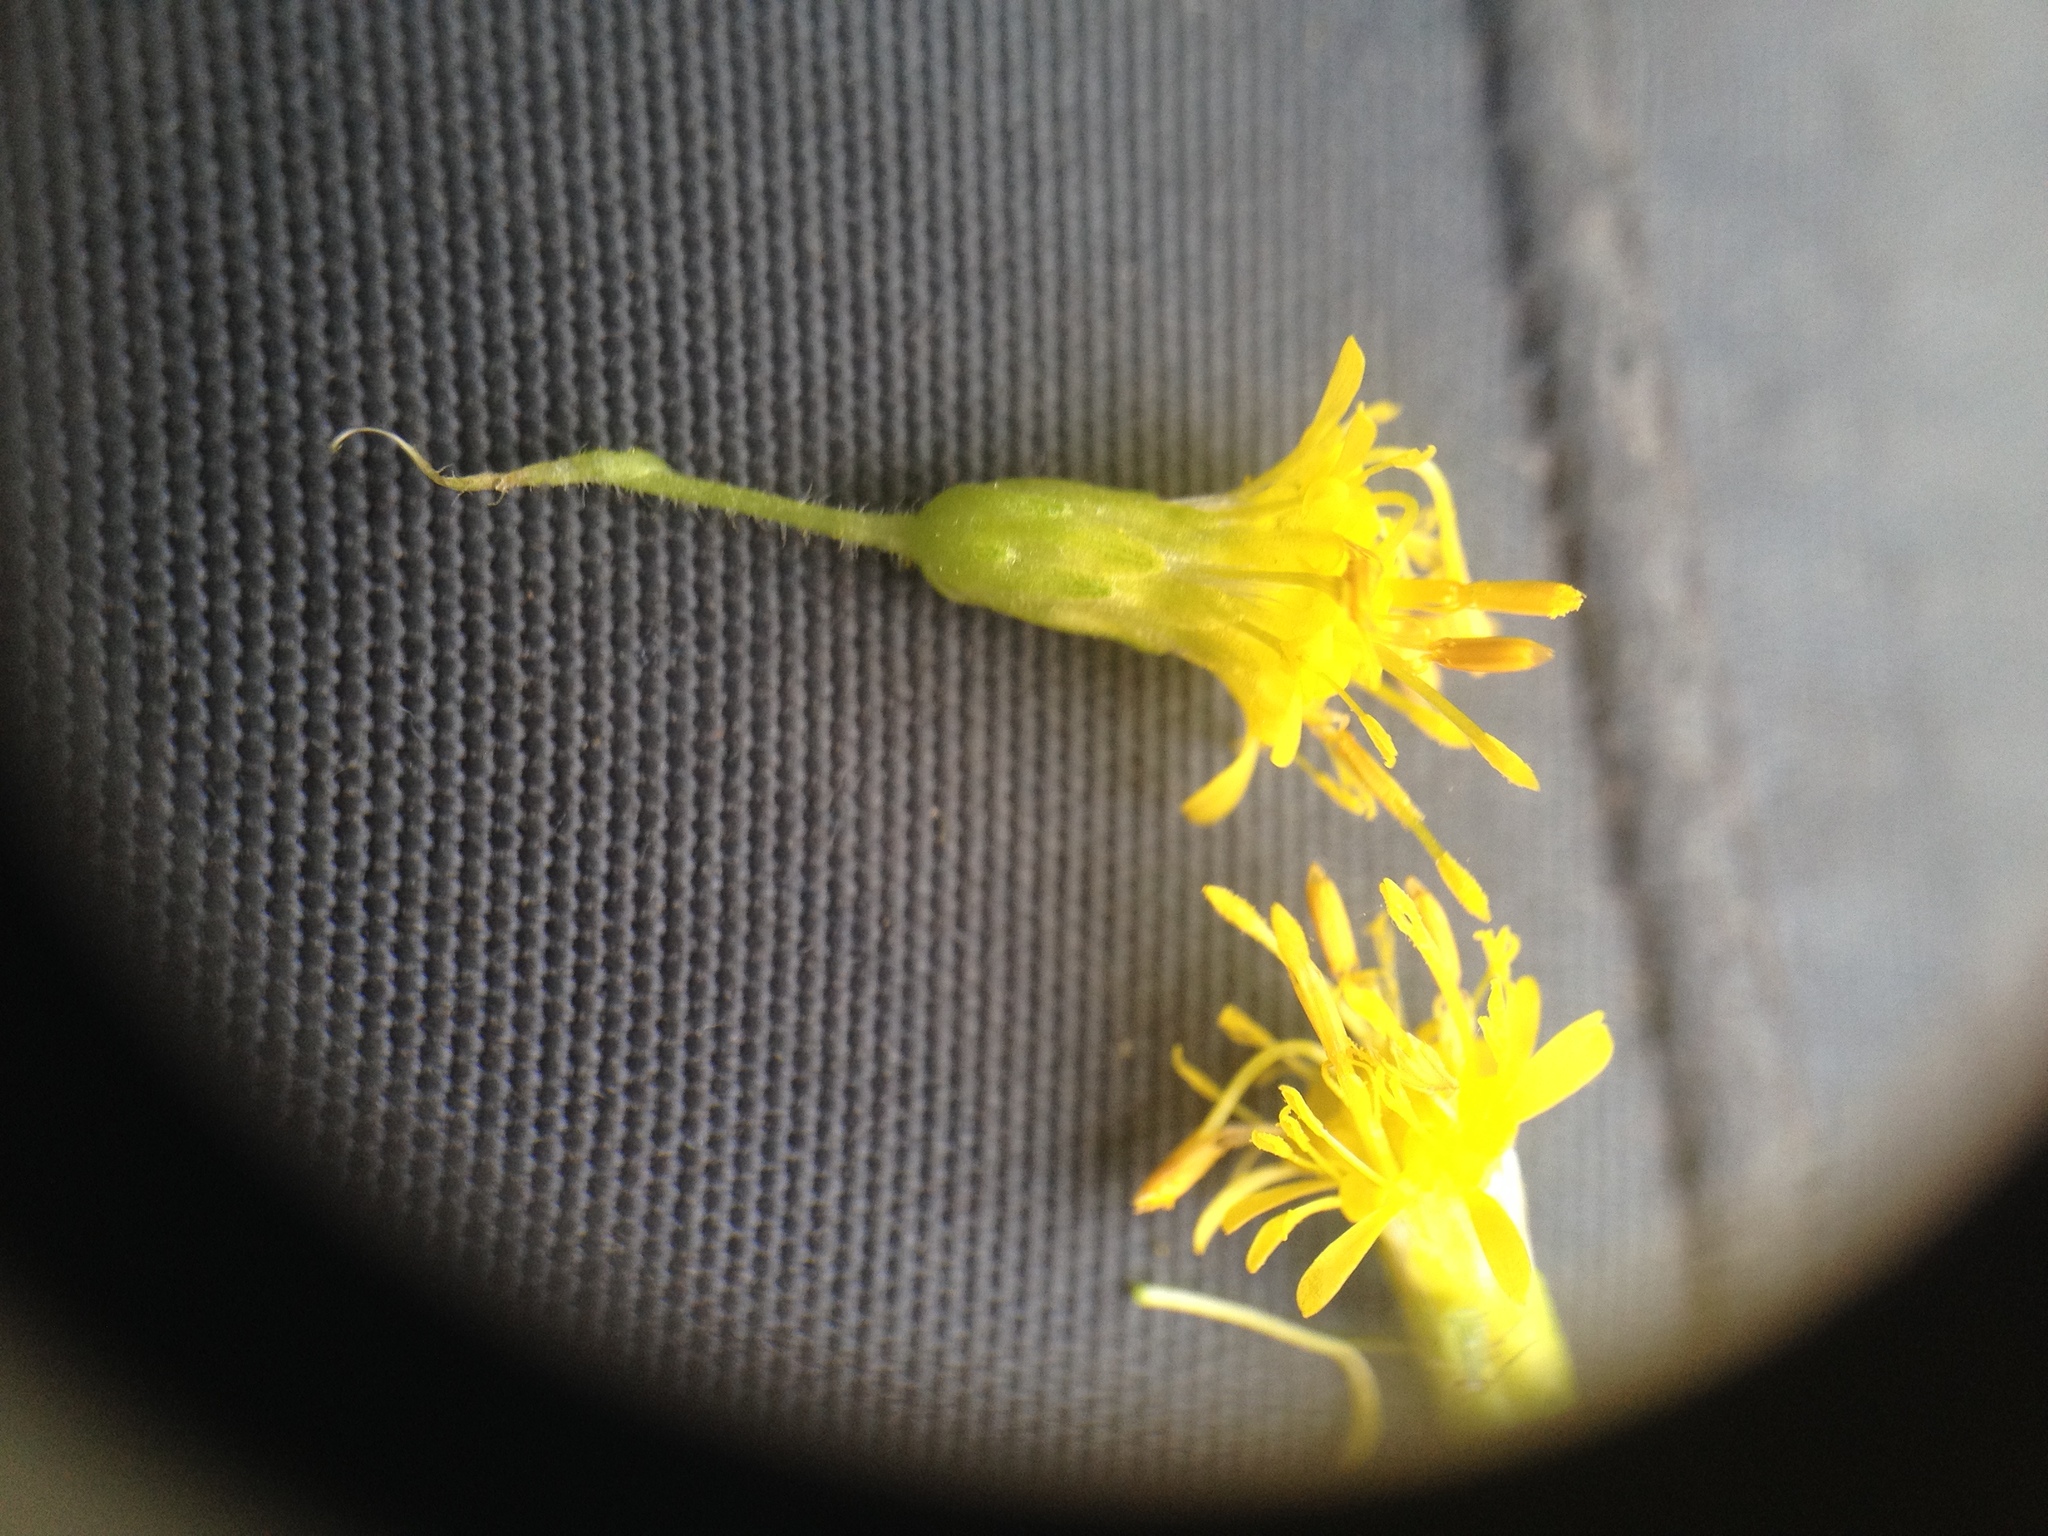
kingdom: Plantae
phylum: Tracheophyta
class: Magnoliopsida
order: Asterales
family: Asteraceae
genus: Solidago
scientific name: Solidago microglossa
